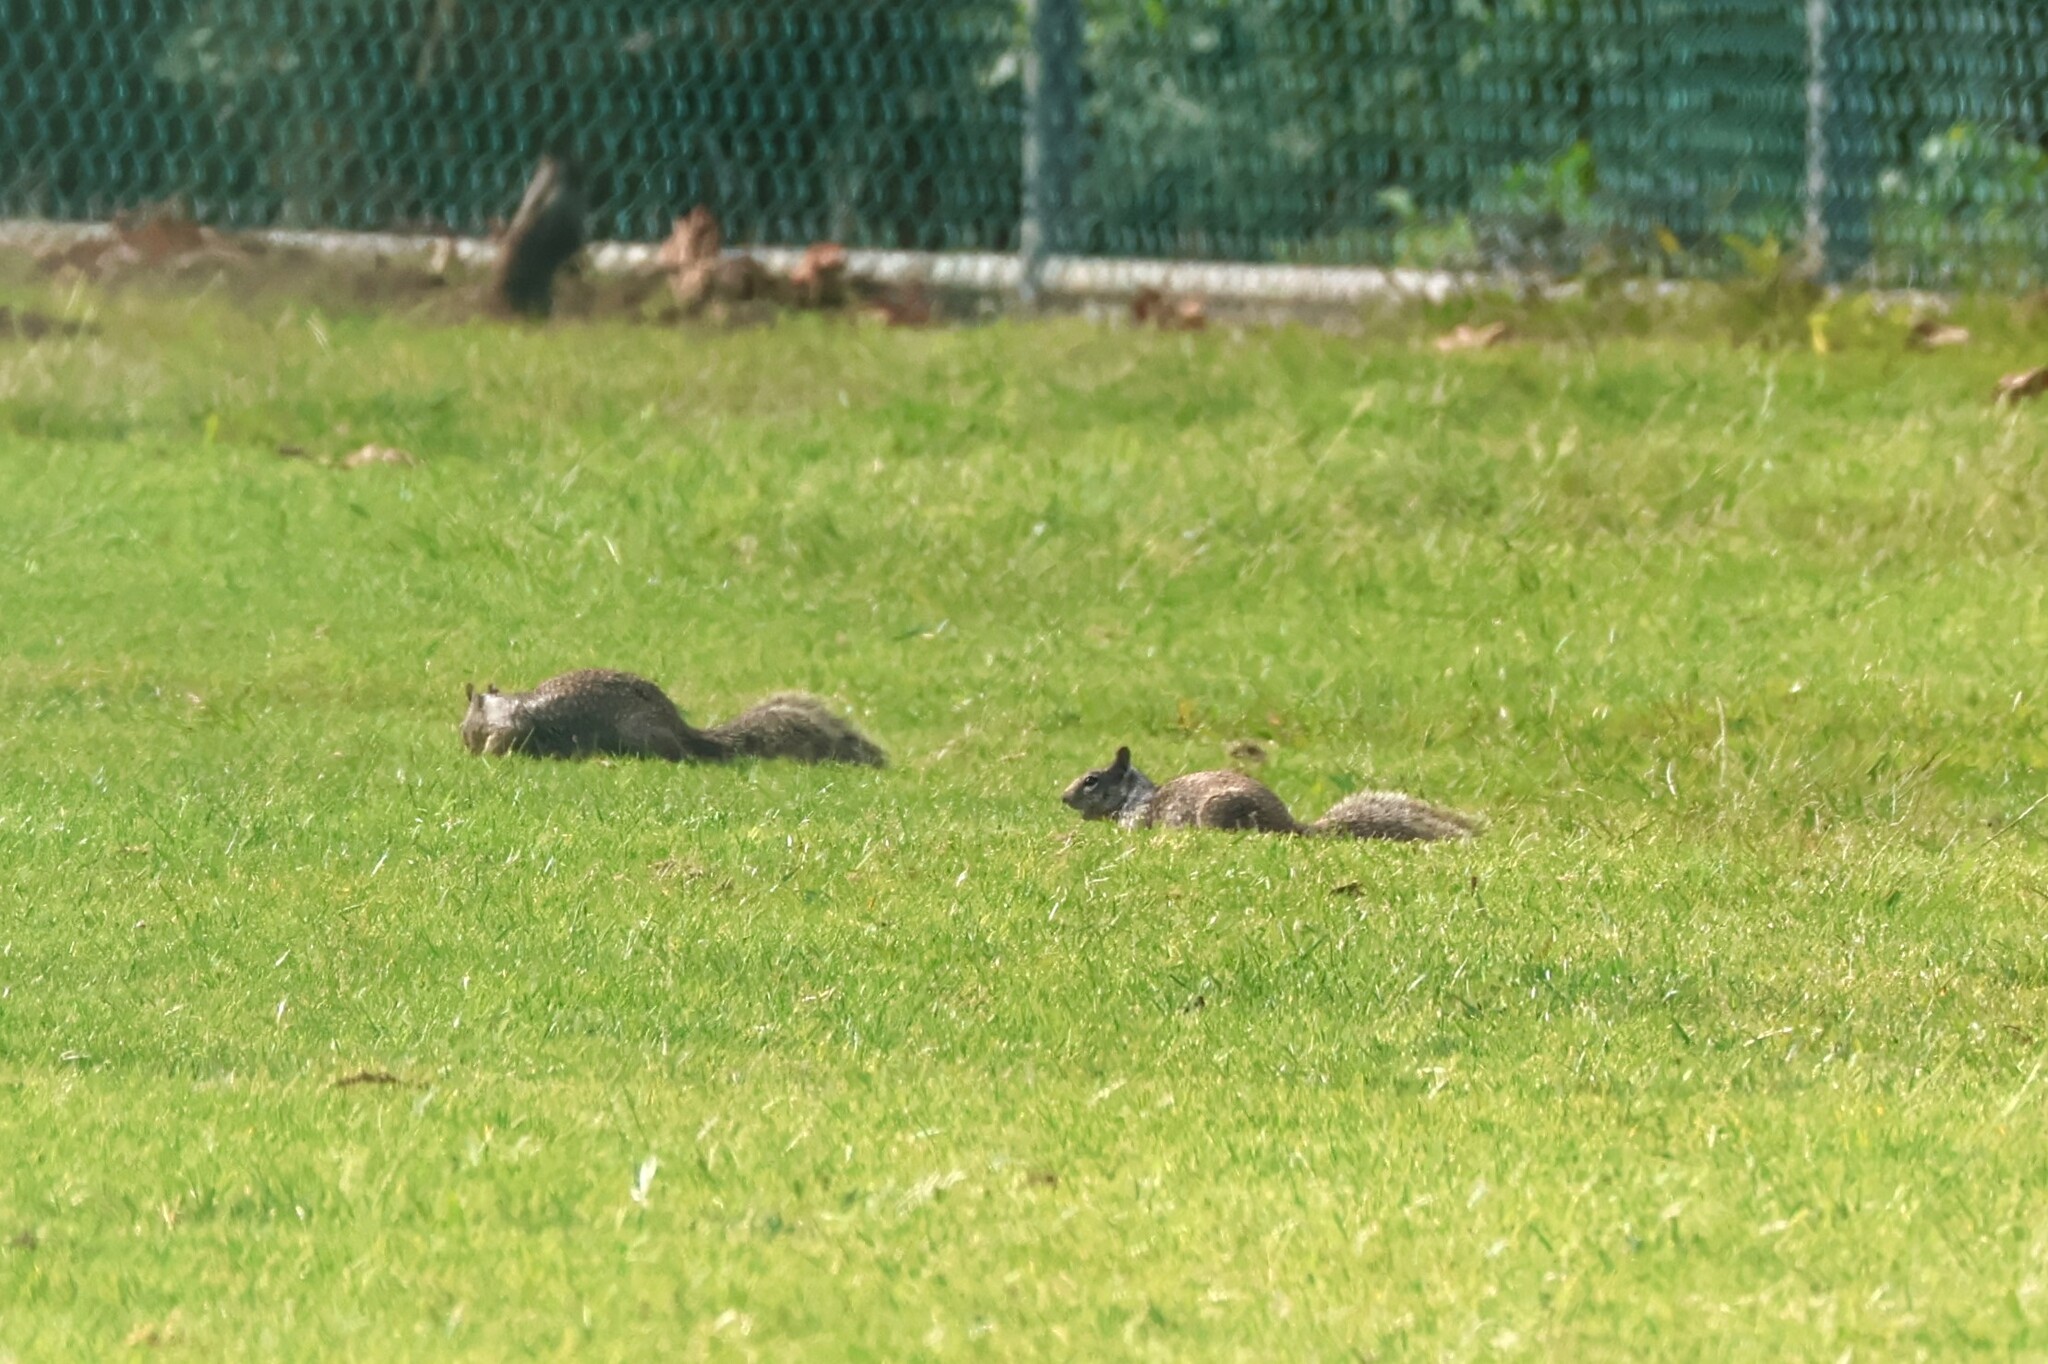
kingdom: Animalia
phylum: Chordata
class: Mammalia
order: Rodentia
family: Sciuridae
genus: Otospermophilus
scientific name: Otospermophilus beecheyi
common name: California ground squirrel
